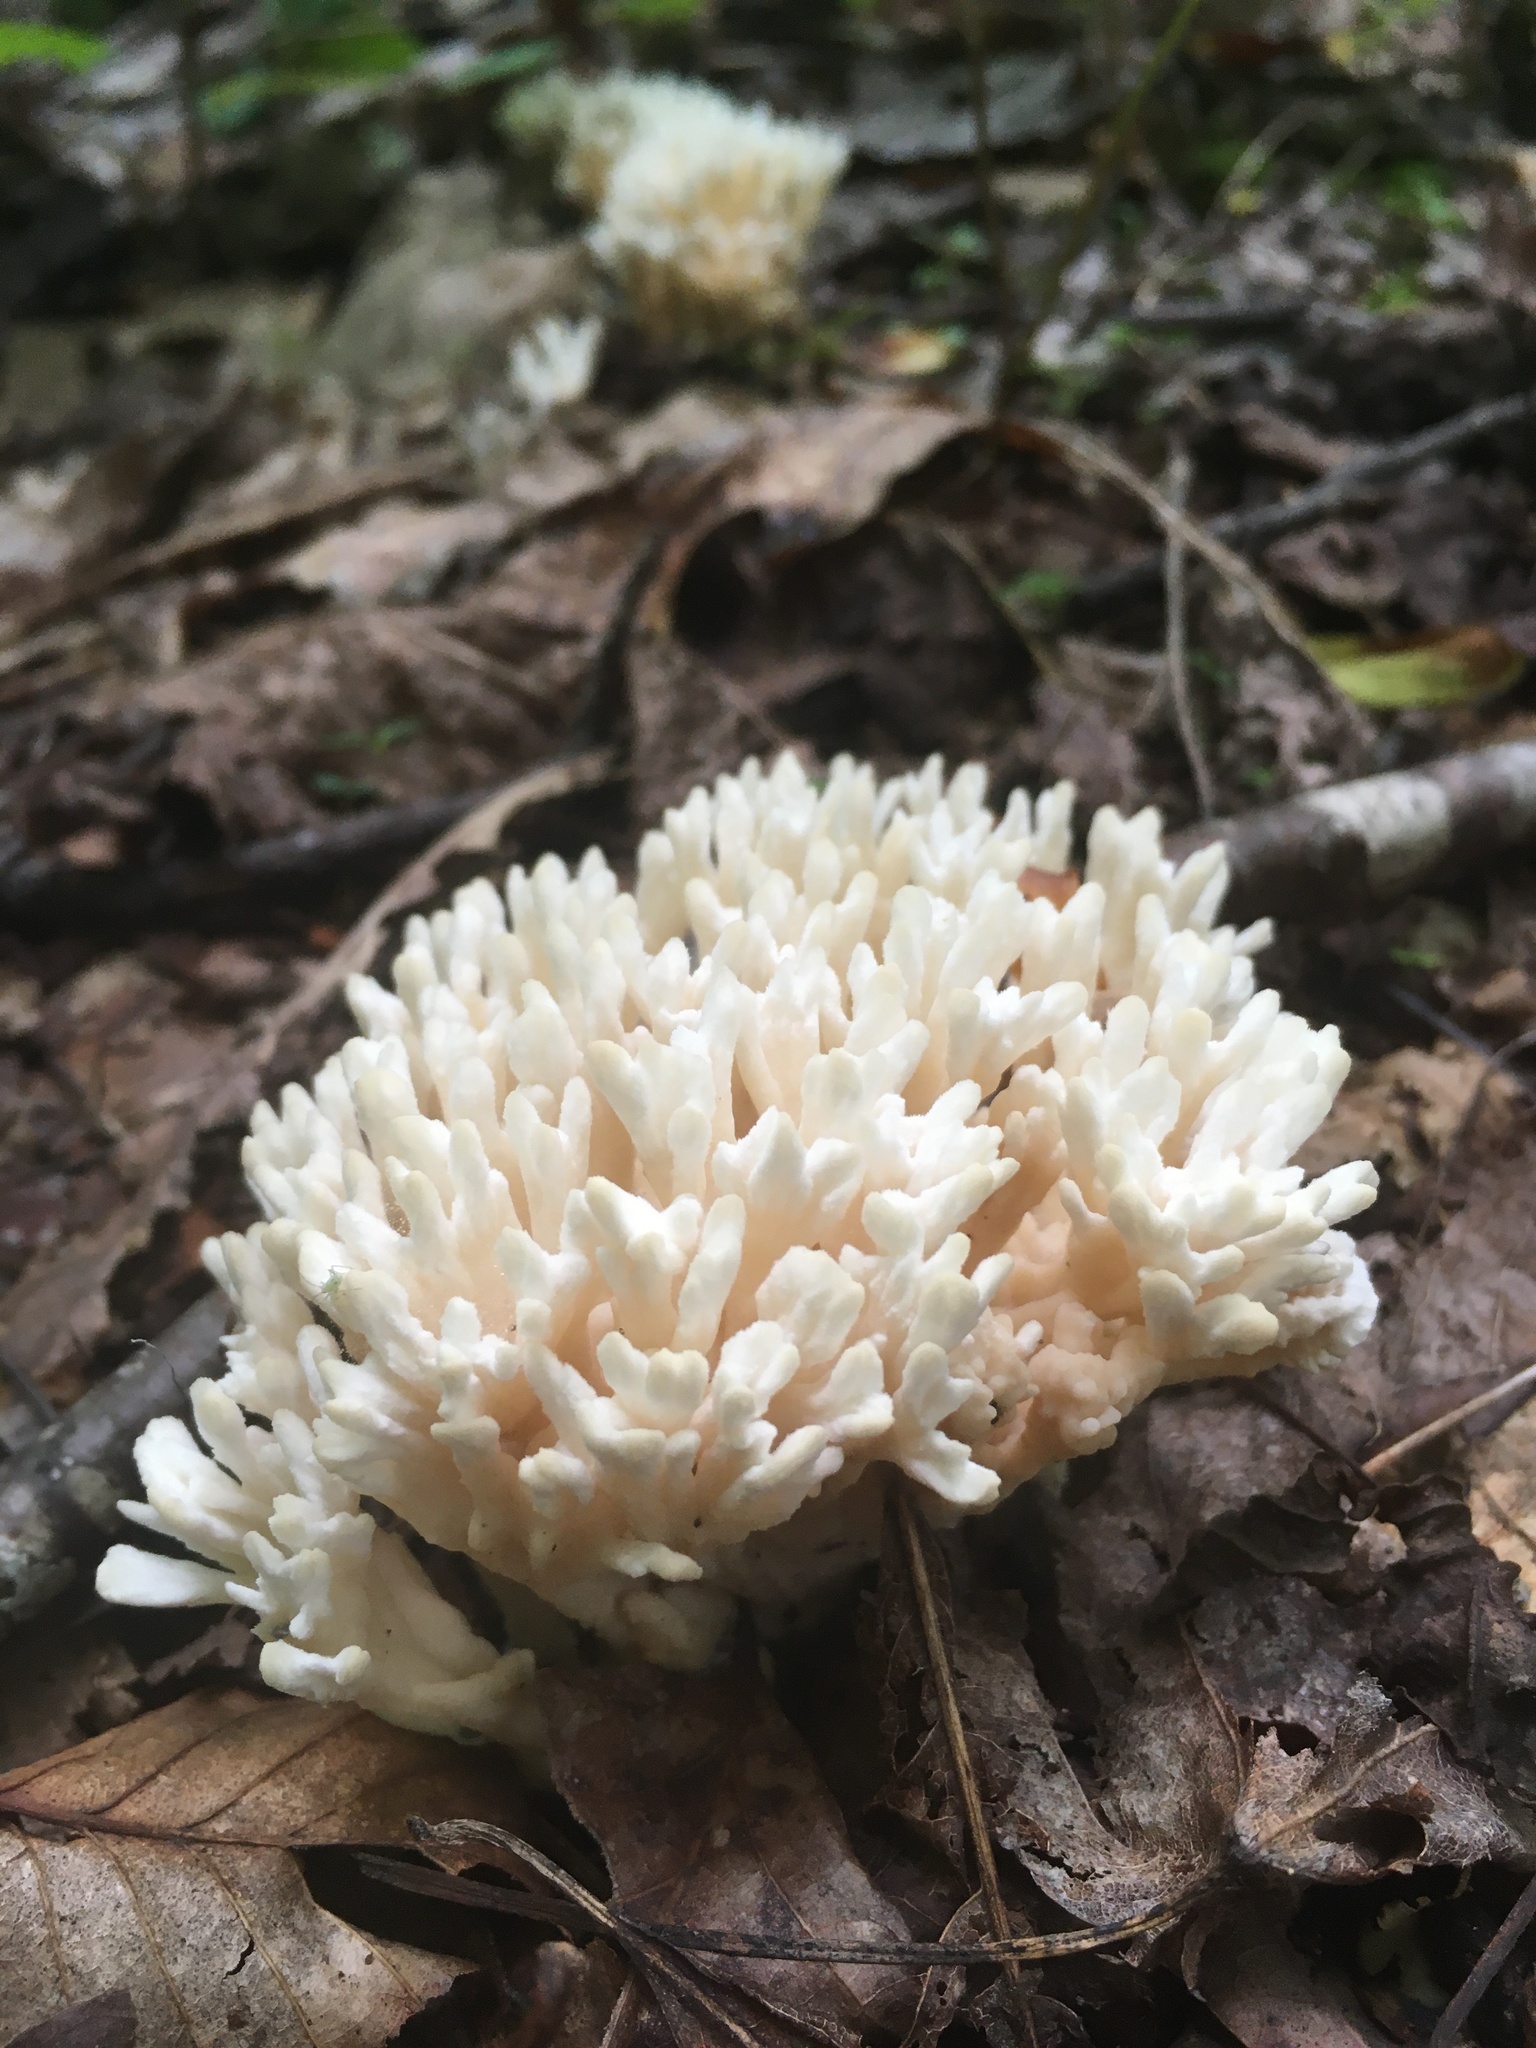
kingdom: Fungi
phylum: Basidiomycota
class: Agaricomycetes
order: Sebacinales
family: Sebacinaceae
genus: Sebacina
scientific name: Sebacina schweinitzii
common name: Jellied false coral fungus
